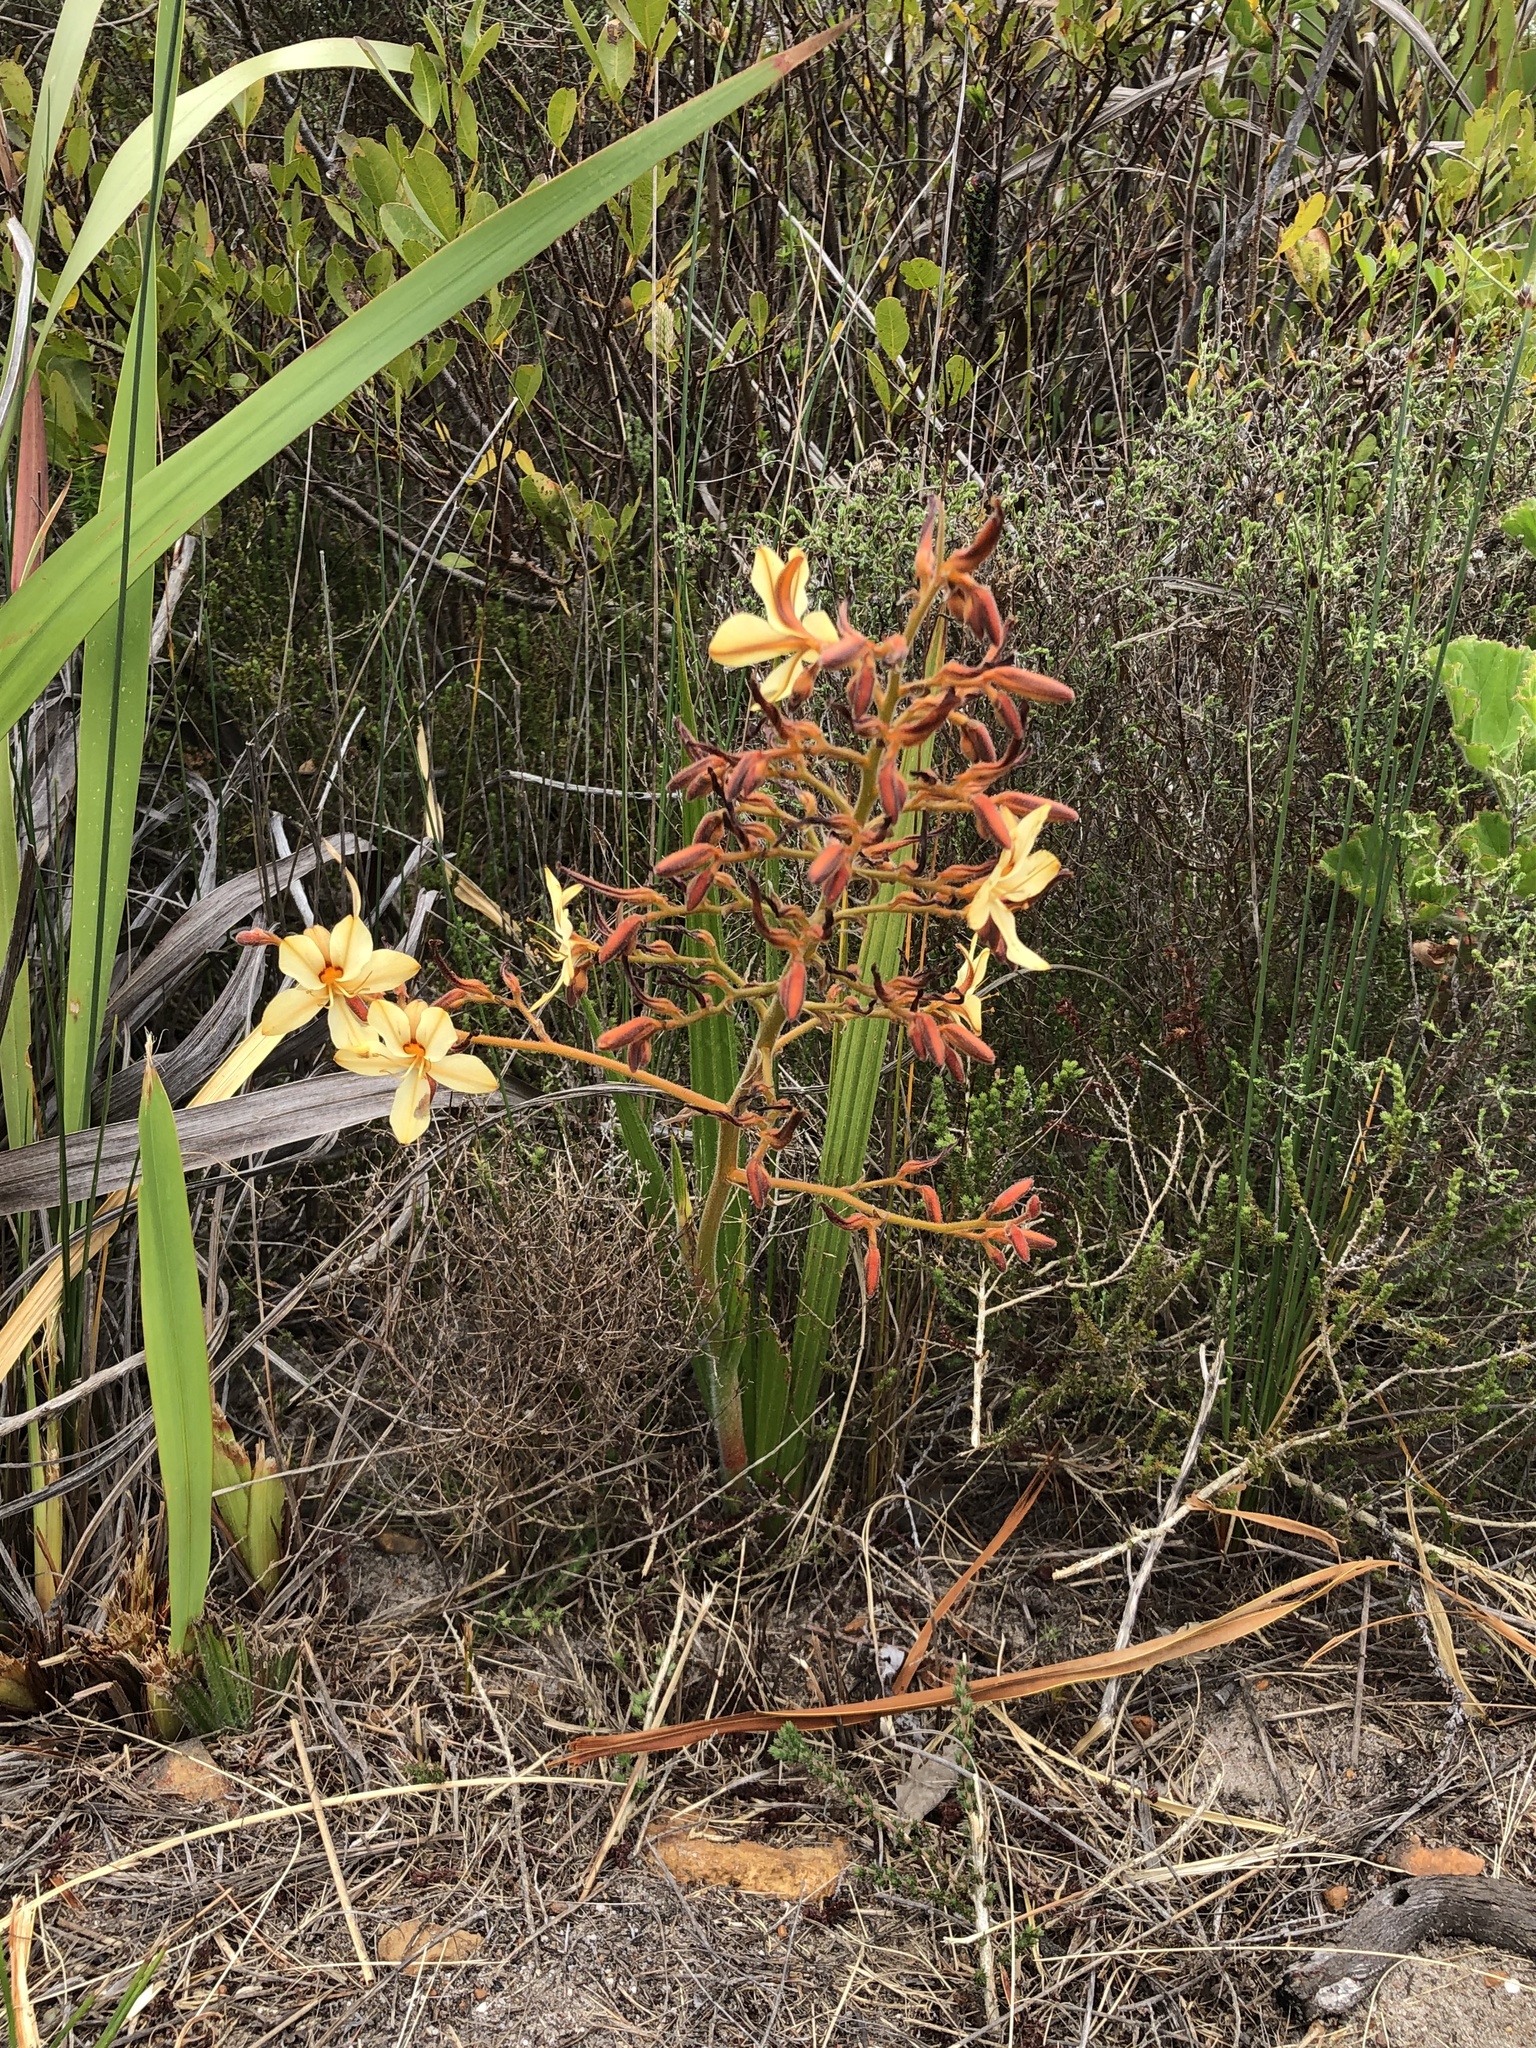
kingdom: Plantae
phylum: Tracheophyta
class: Liliopsida
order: Commelinales
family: Haemodoraceae
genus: Wachendorfia
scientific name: Wachendorfia paniculata
